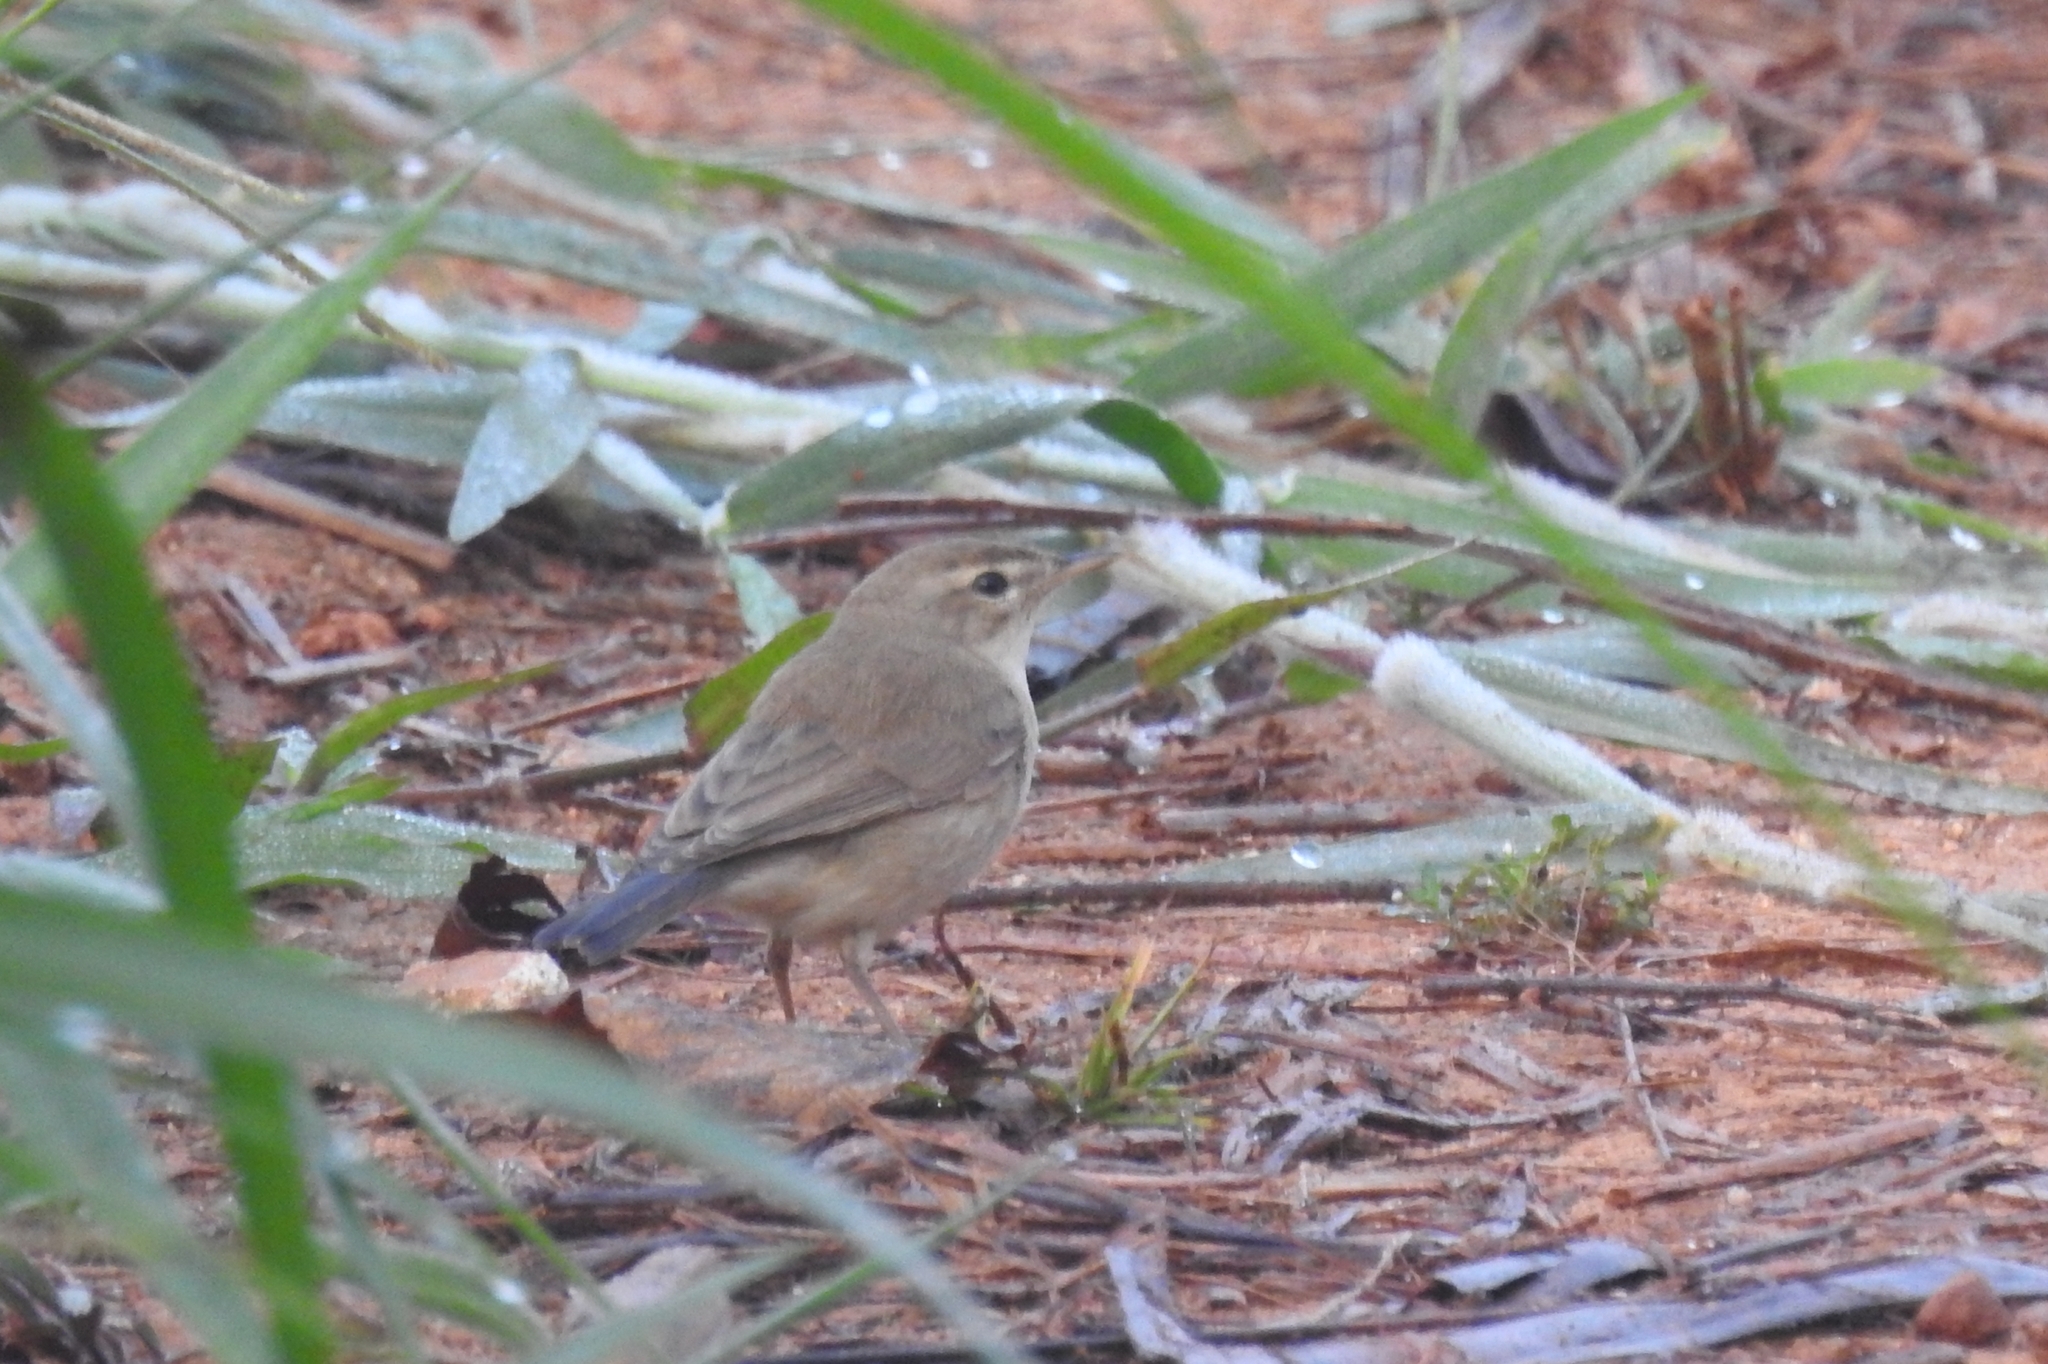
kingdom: Animalia
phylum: Chordata
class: Aves
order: Passeriformes
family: Acrocephalidae
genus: Acrocephalus
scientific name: Acrocephalus dumetorum
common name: Blyth's reed warbler
